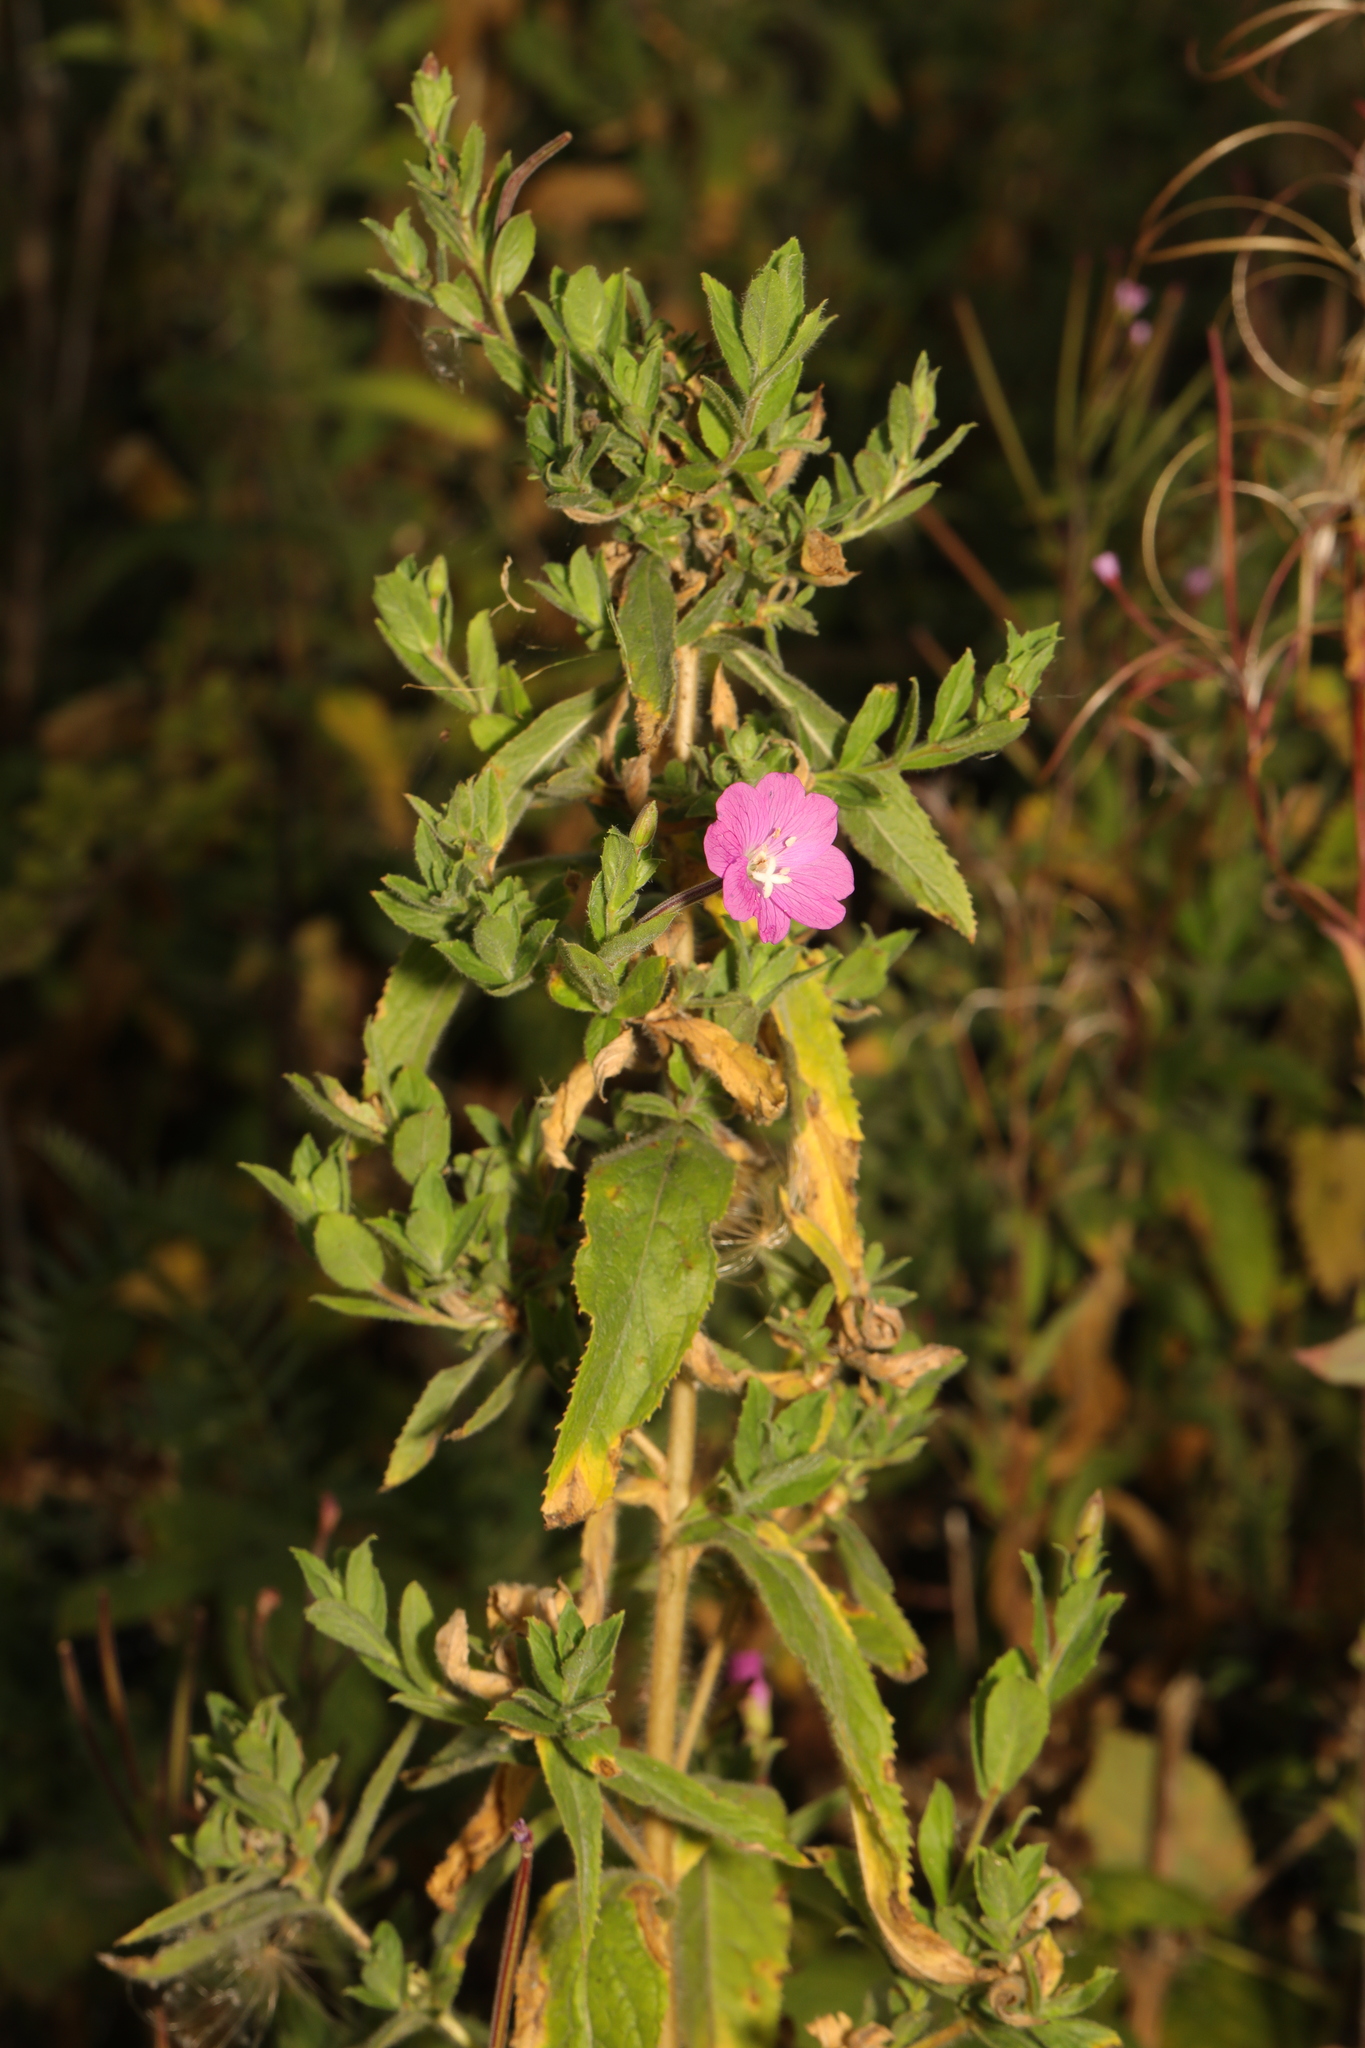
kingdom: Plantae
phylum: Tracheophyta
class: Magnoliopsida
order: Myrtales
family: Onagraceae
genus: Epilobium
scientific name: Epilobium hirsutum
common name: Great willowherb
